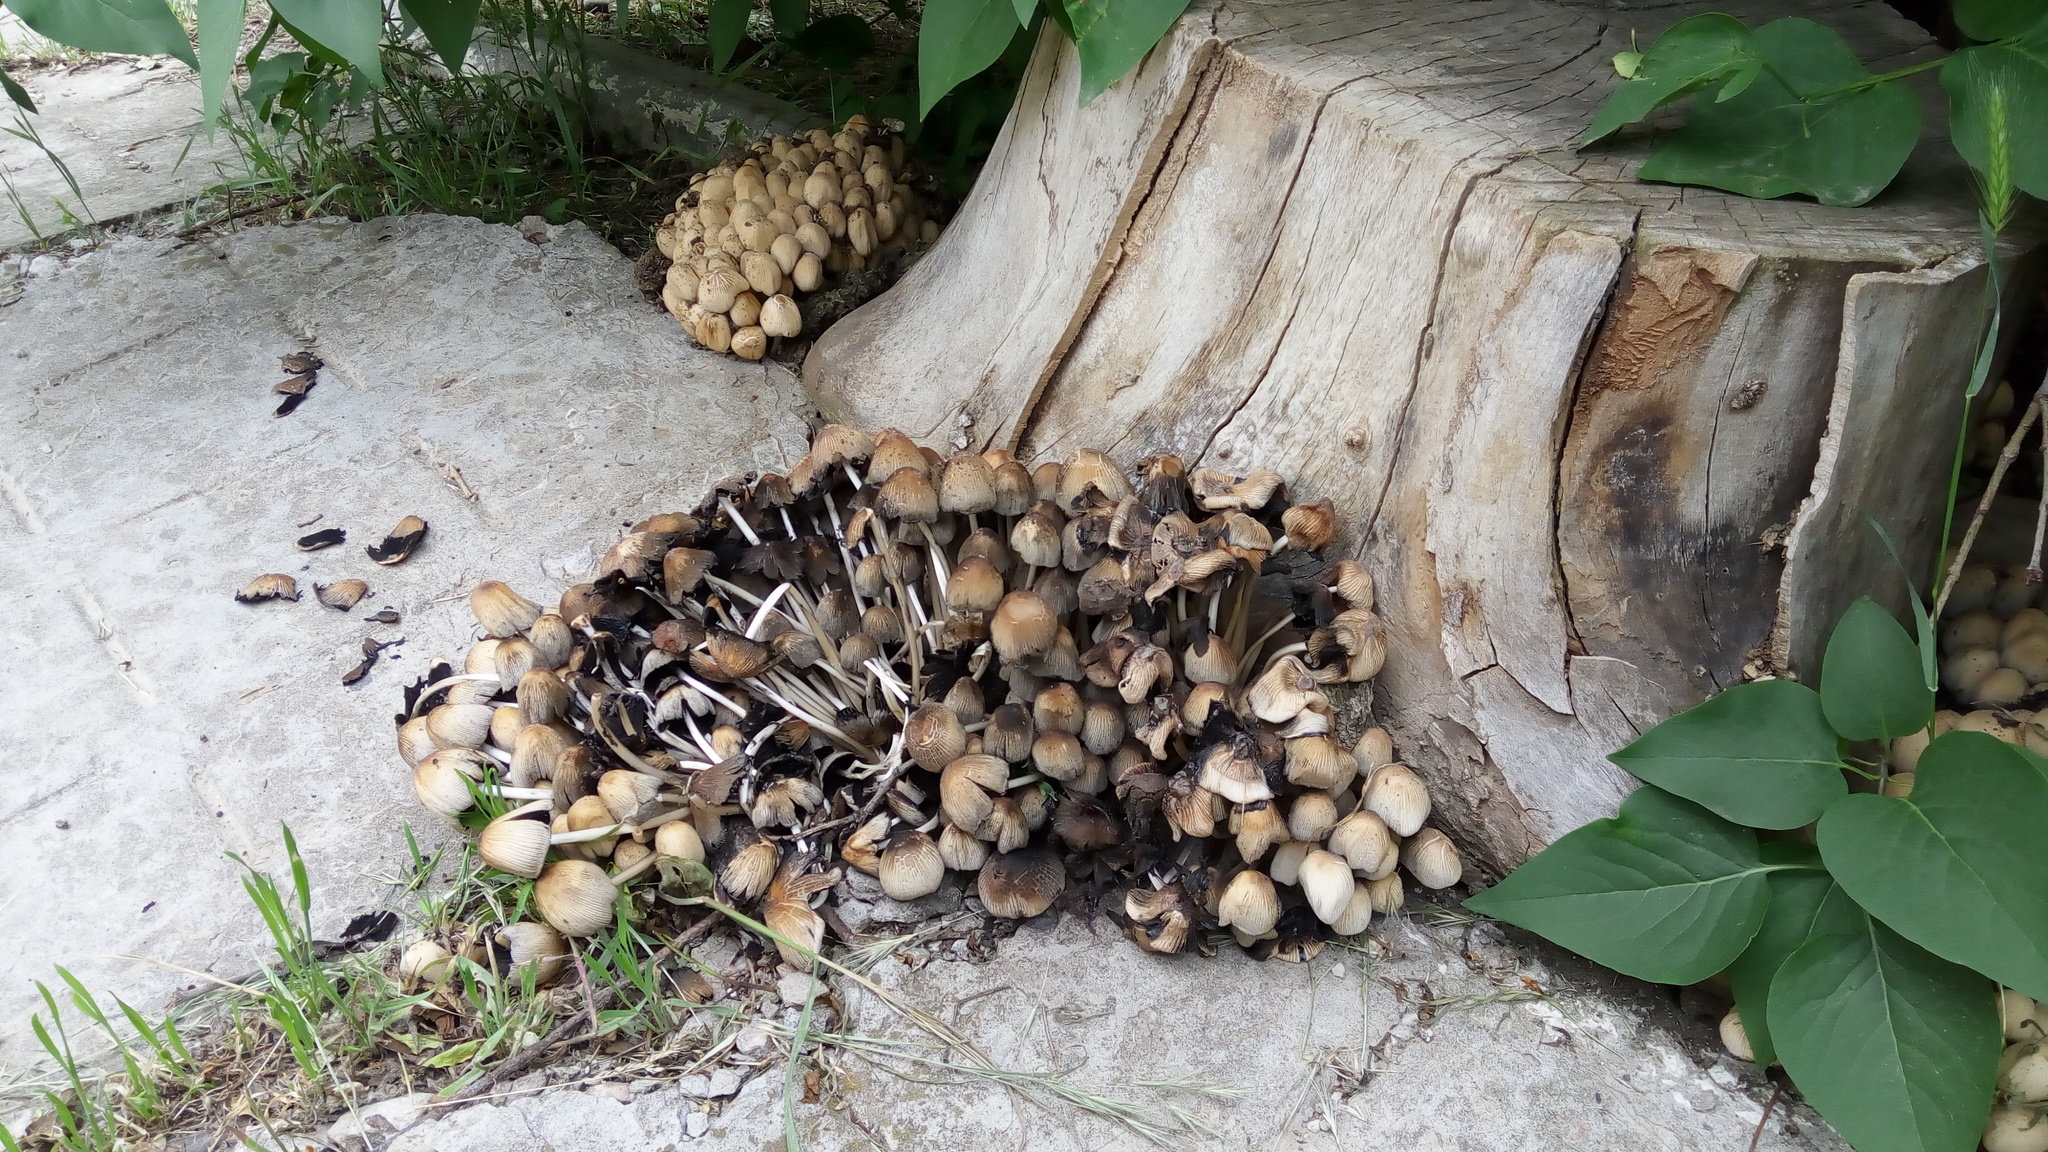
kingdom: Fungi
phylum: Basidiomycota
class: Agaricomycetes
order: Agaricales
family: Psathyrellaceae
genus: Coprinellus
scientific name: Coprinellus disseminatus
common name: Fairies' bonnets
